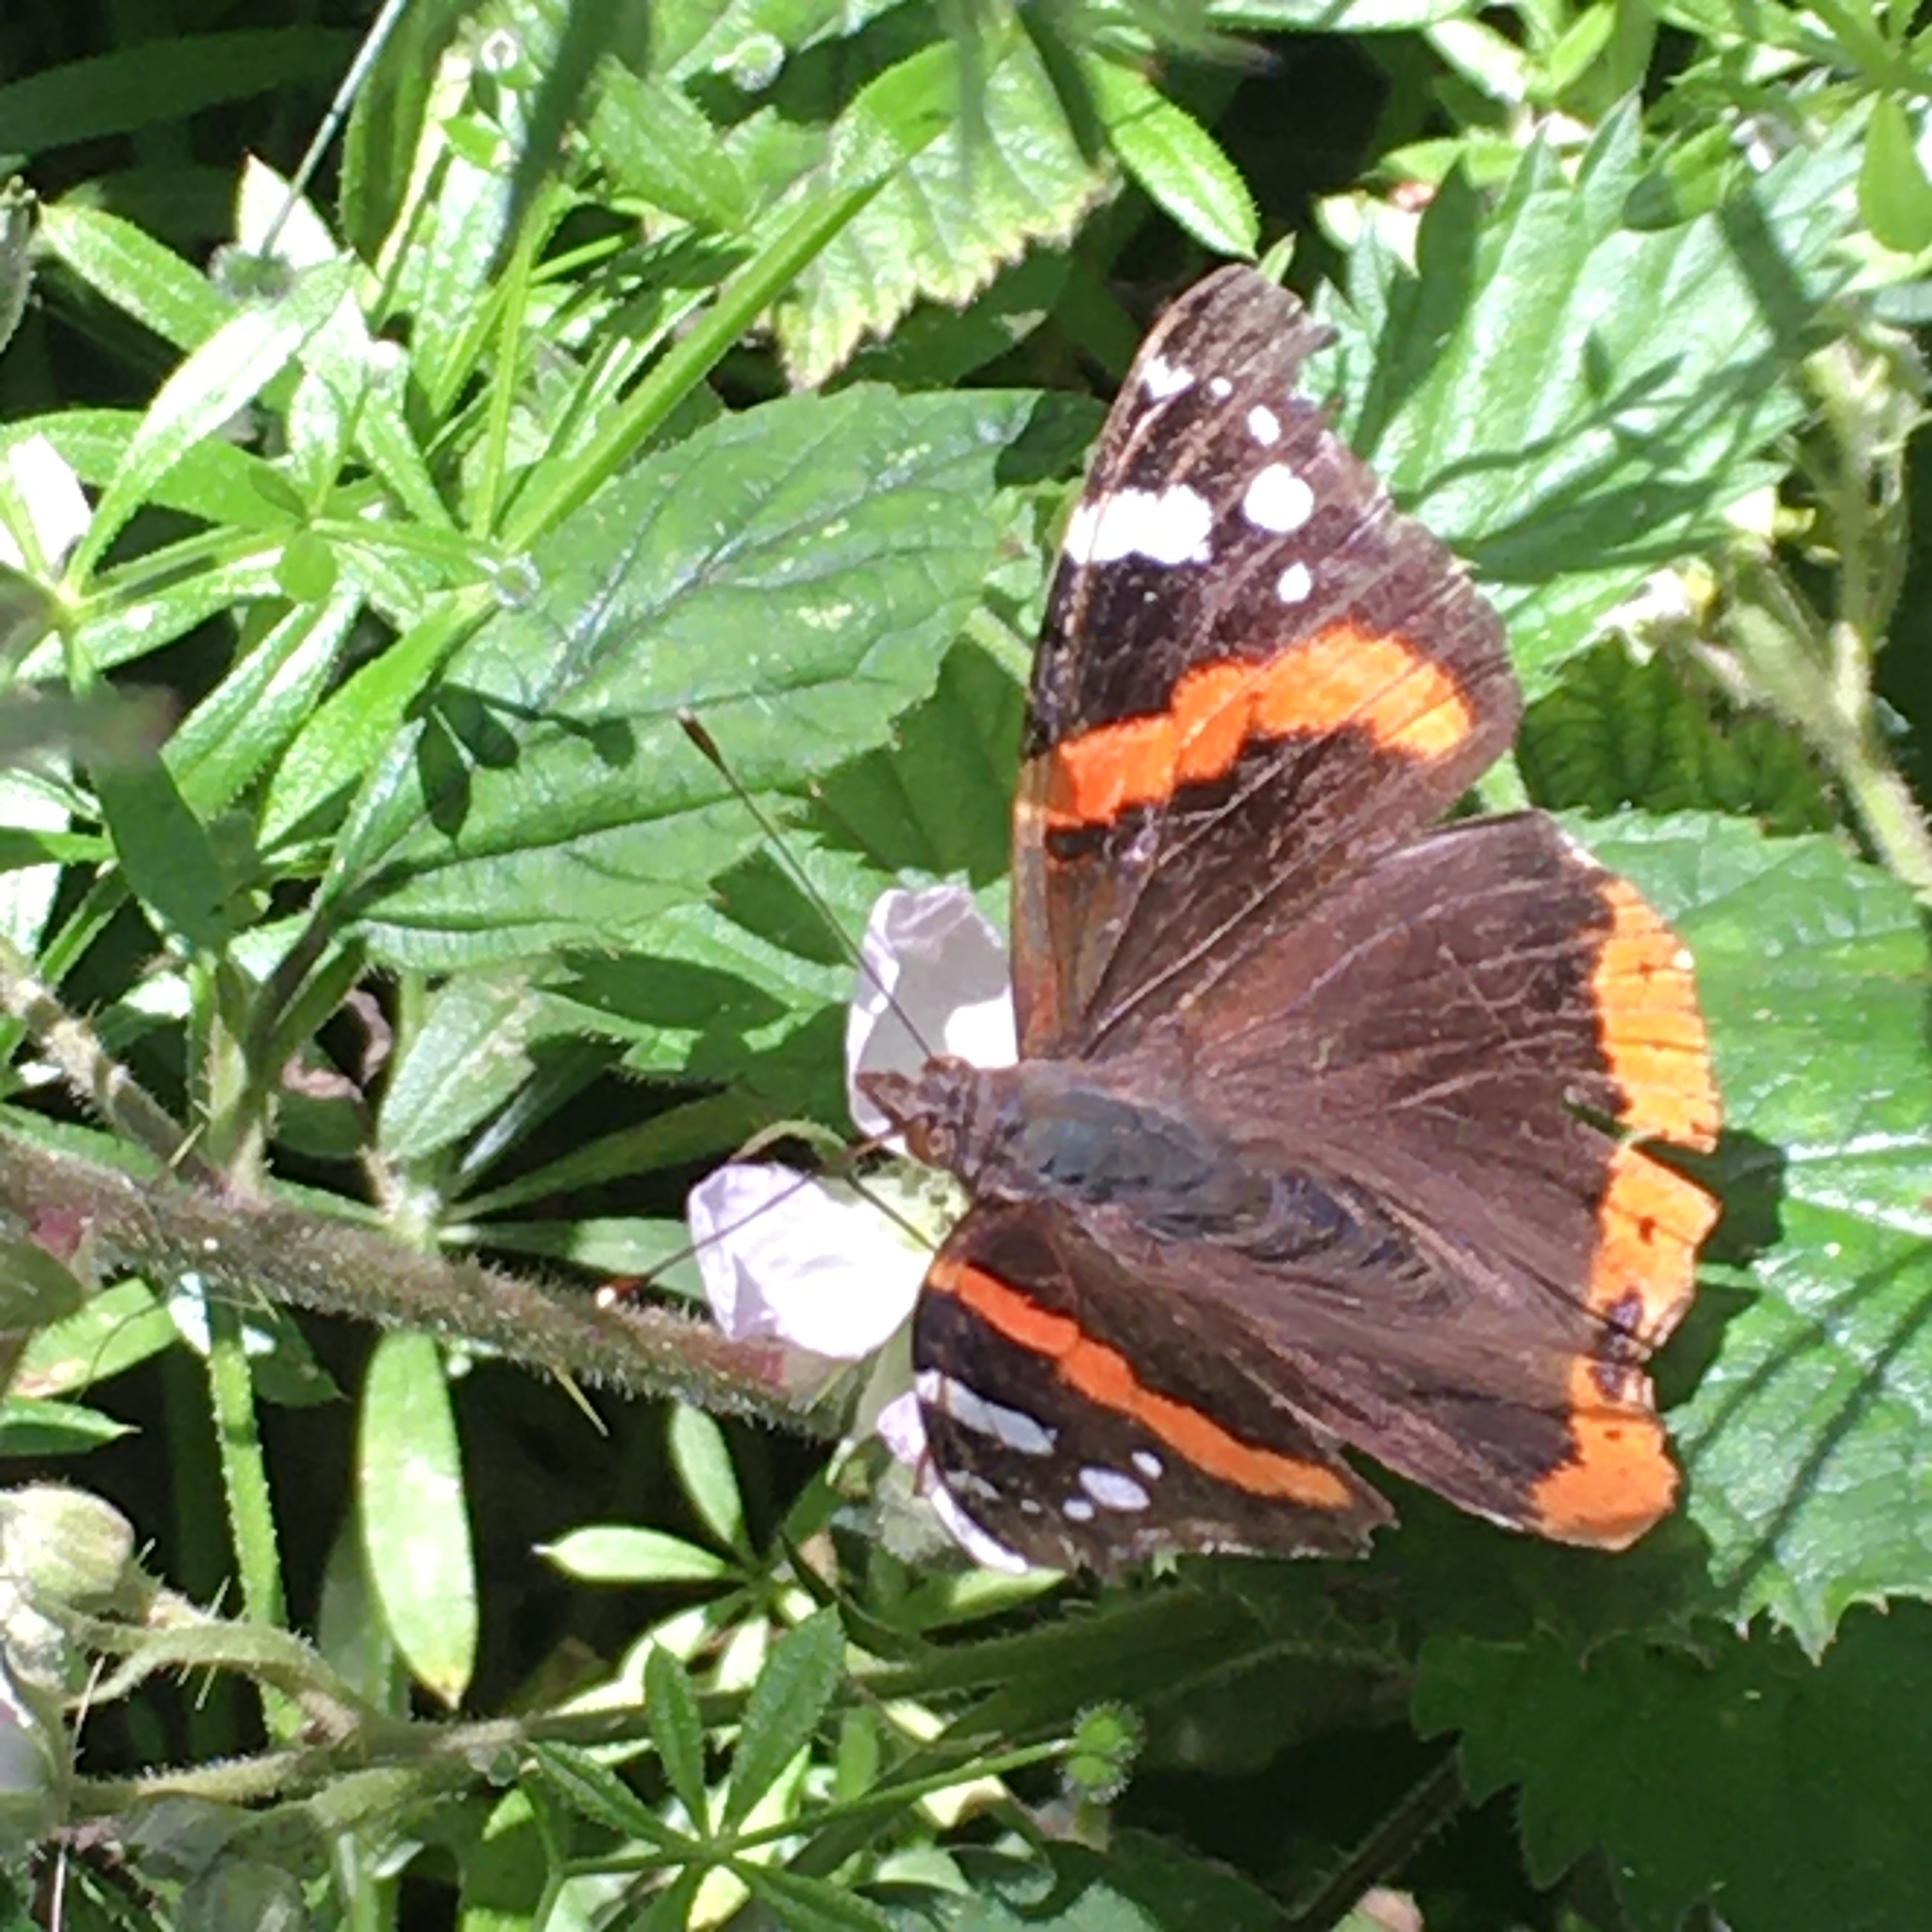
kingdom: Animalia
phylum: Arthropoda
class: Insecta
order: Lepidoptera
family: Nymphalidae
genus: Vanessa
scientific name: Vanessa atalanta
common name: Red admiral
